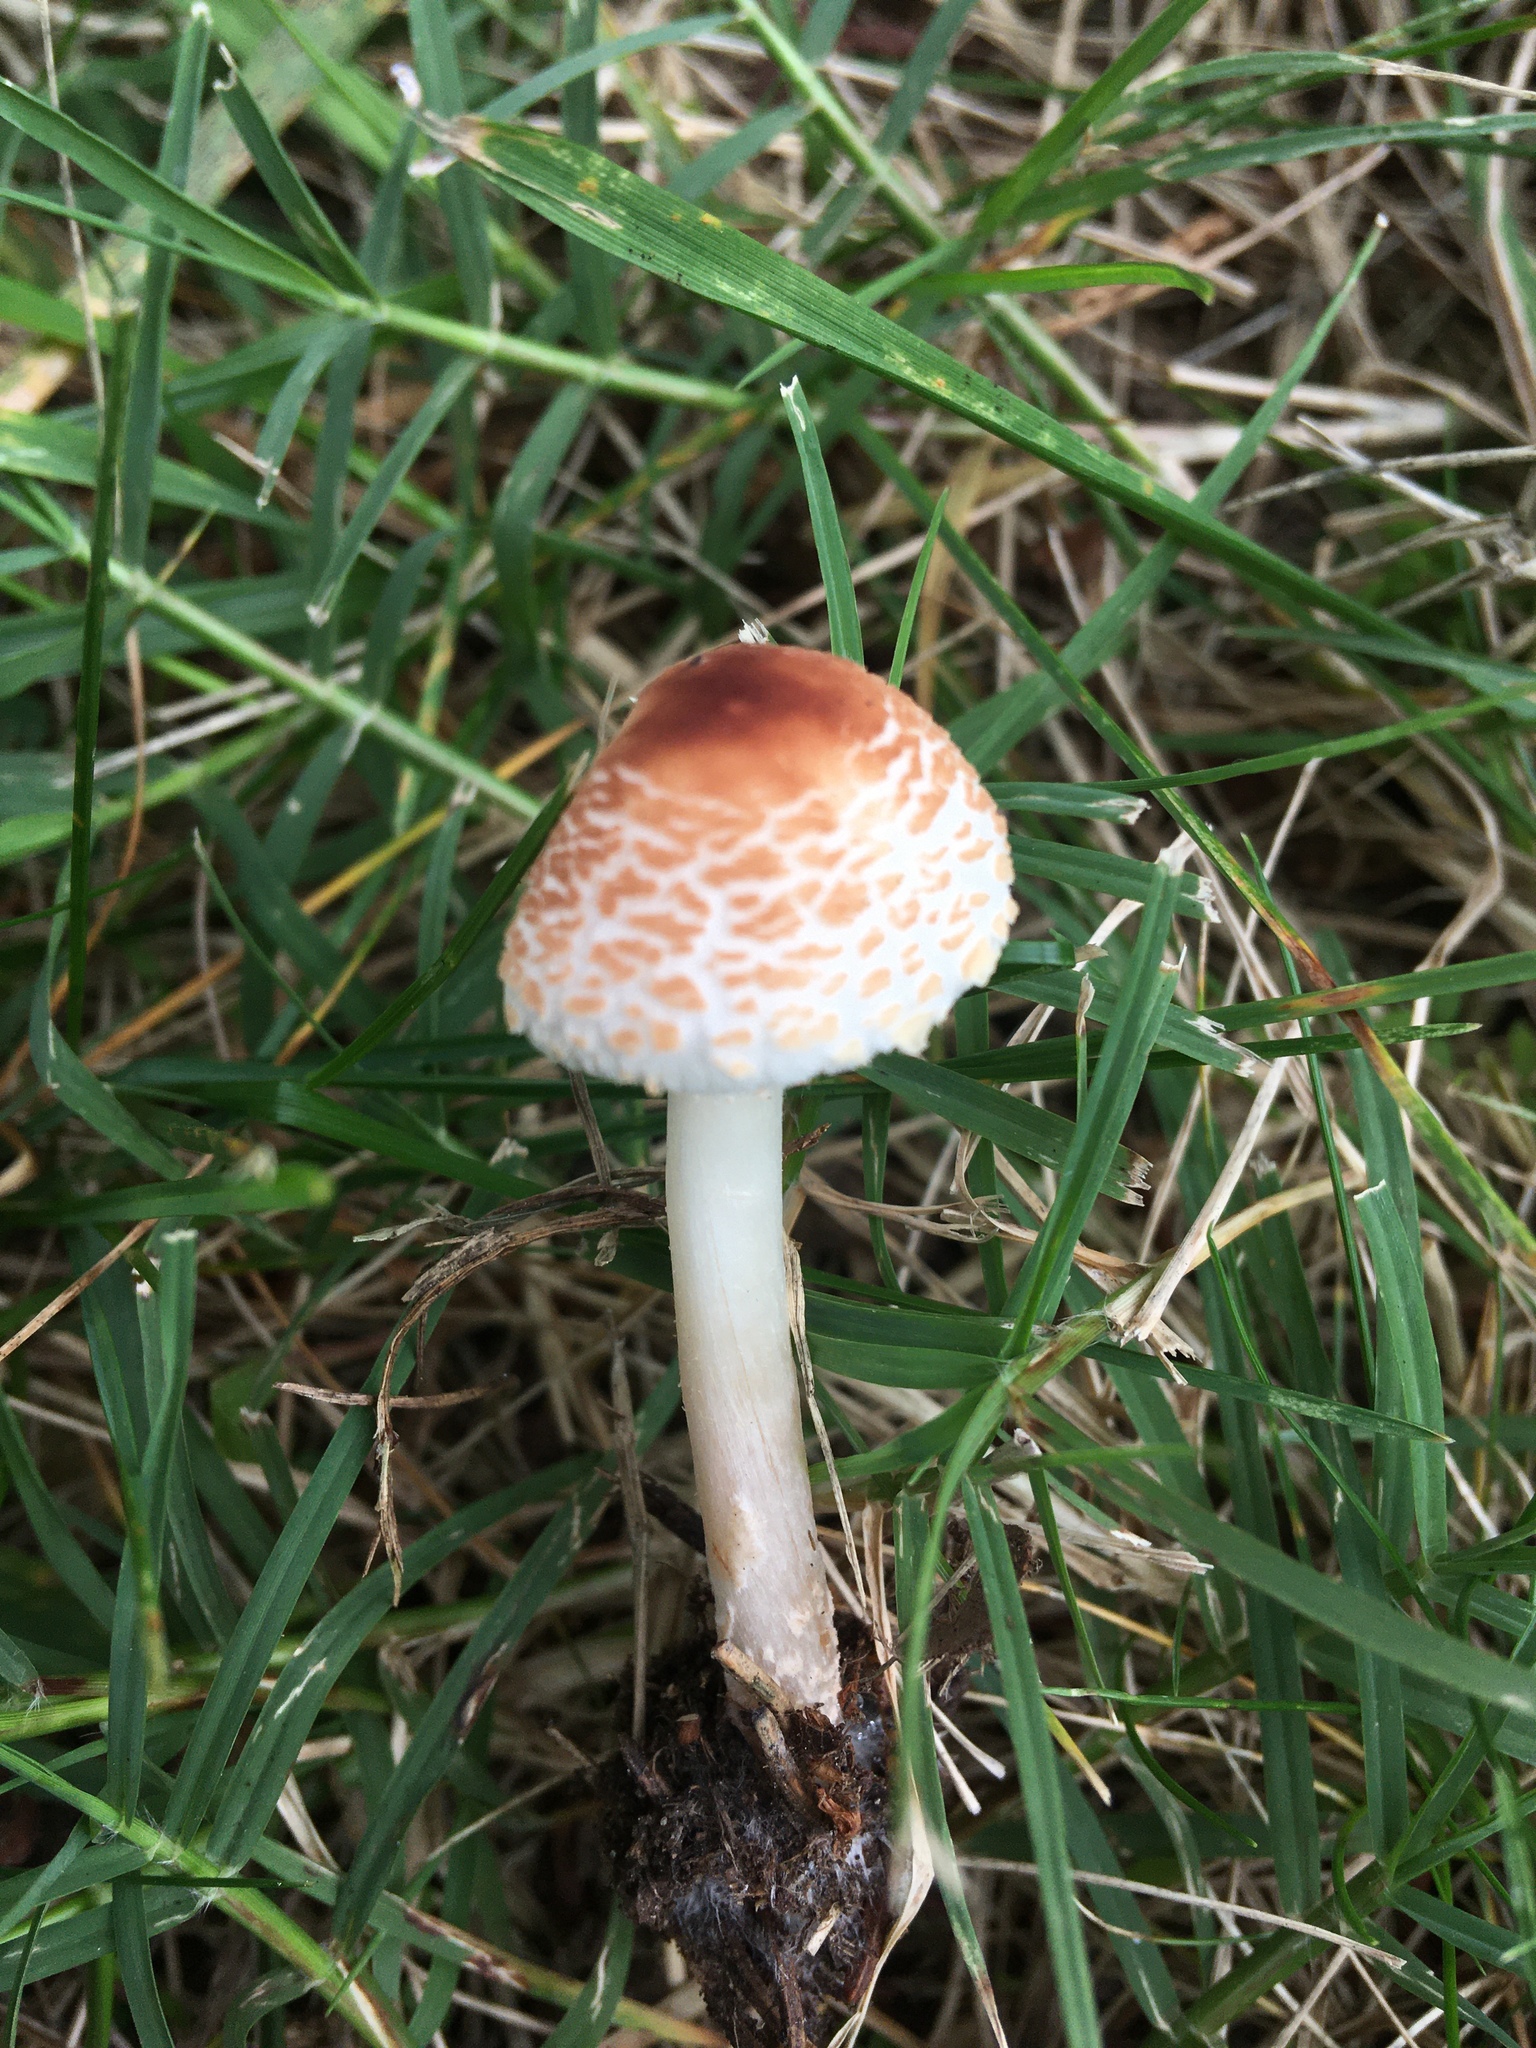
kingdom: Fungi
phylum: Basidiomycota
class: Agaricomycetes
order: Agaricales
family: Agaricaceae
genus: Lepiota
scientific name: Lepiota cristata
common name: Stinking dapperling
